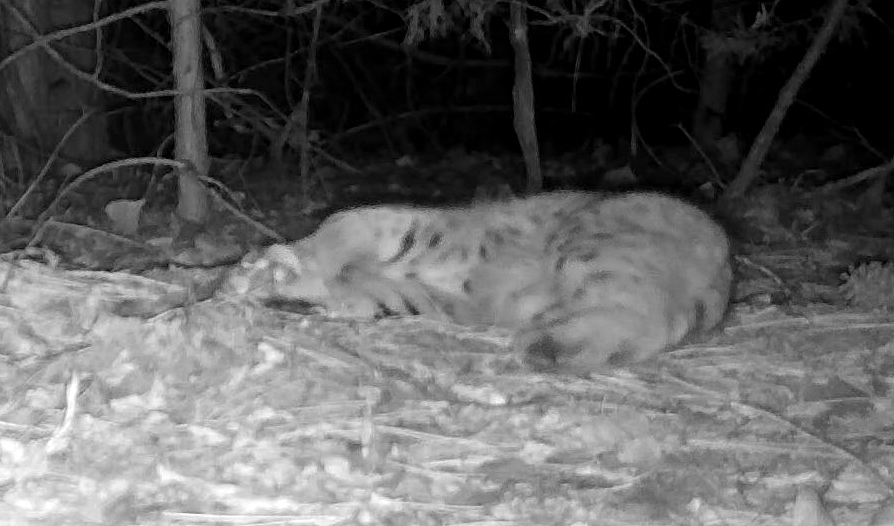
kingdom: Animalia
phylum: Chordata
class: Mammalia
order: Carnivora
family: Felidae
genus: Lynx
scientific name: Lynx rufus
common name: Bobcat
